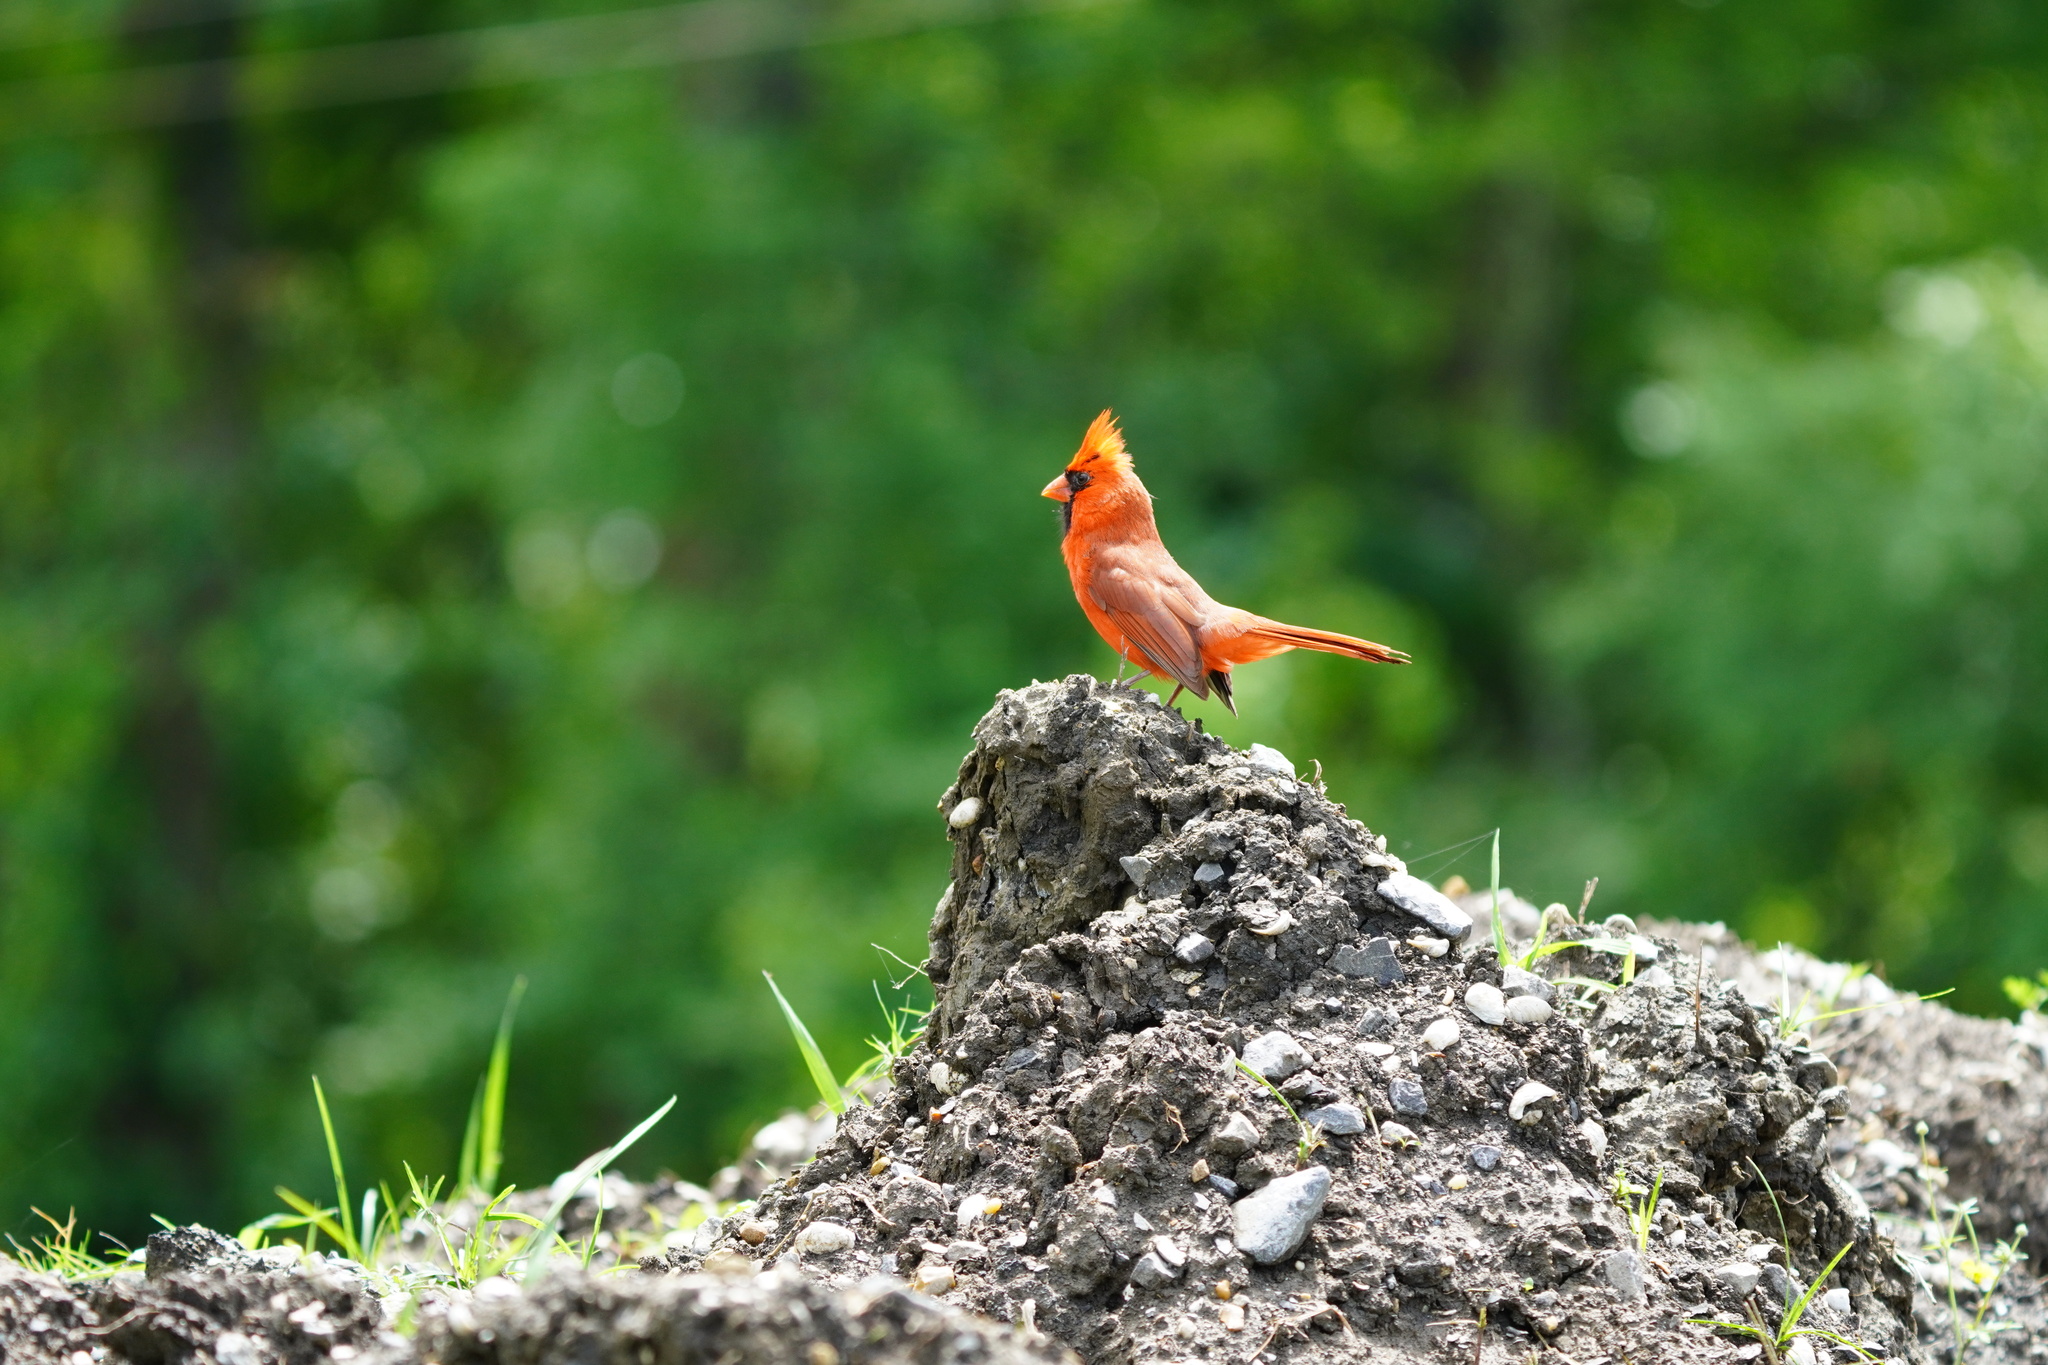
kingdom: Animalia
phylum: Chordata
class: Aves
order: Passeriformes
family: Cardinalidae
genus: Cardinalis
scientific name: Cardinalis cardinalis
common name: Northern cardinal
